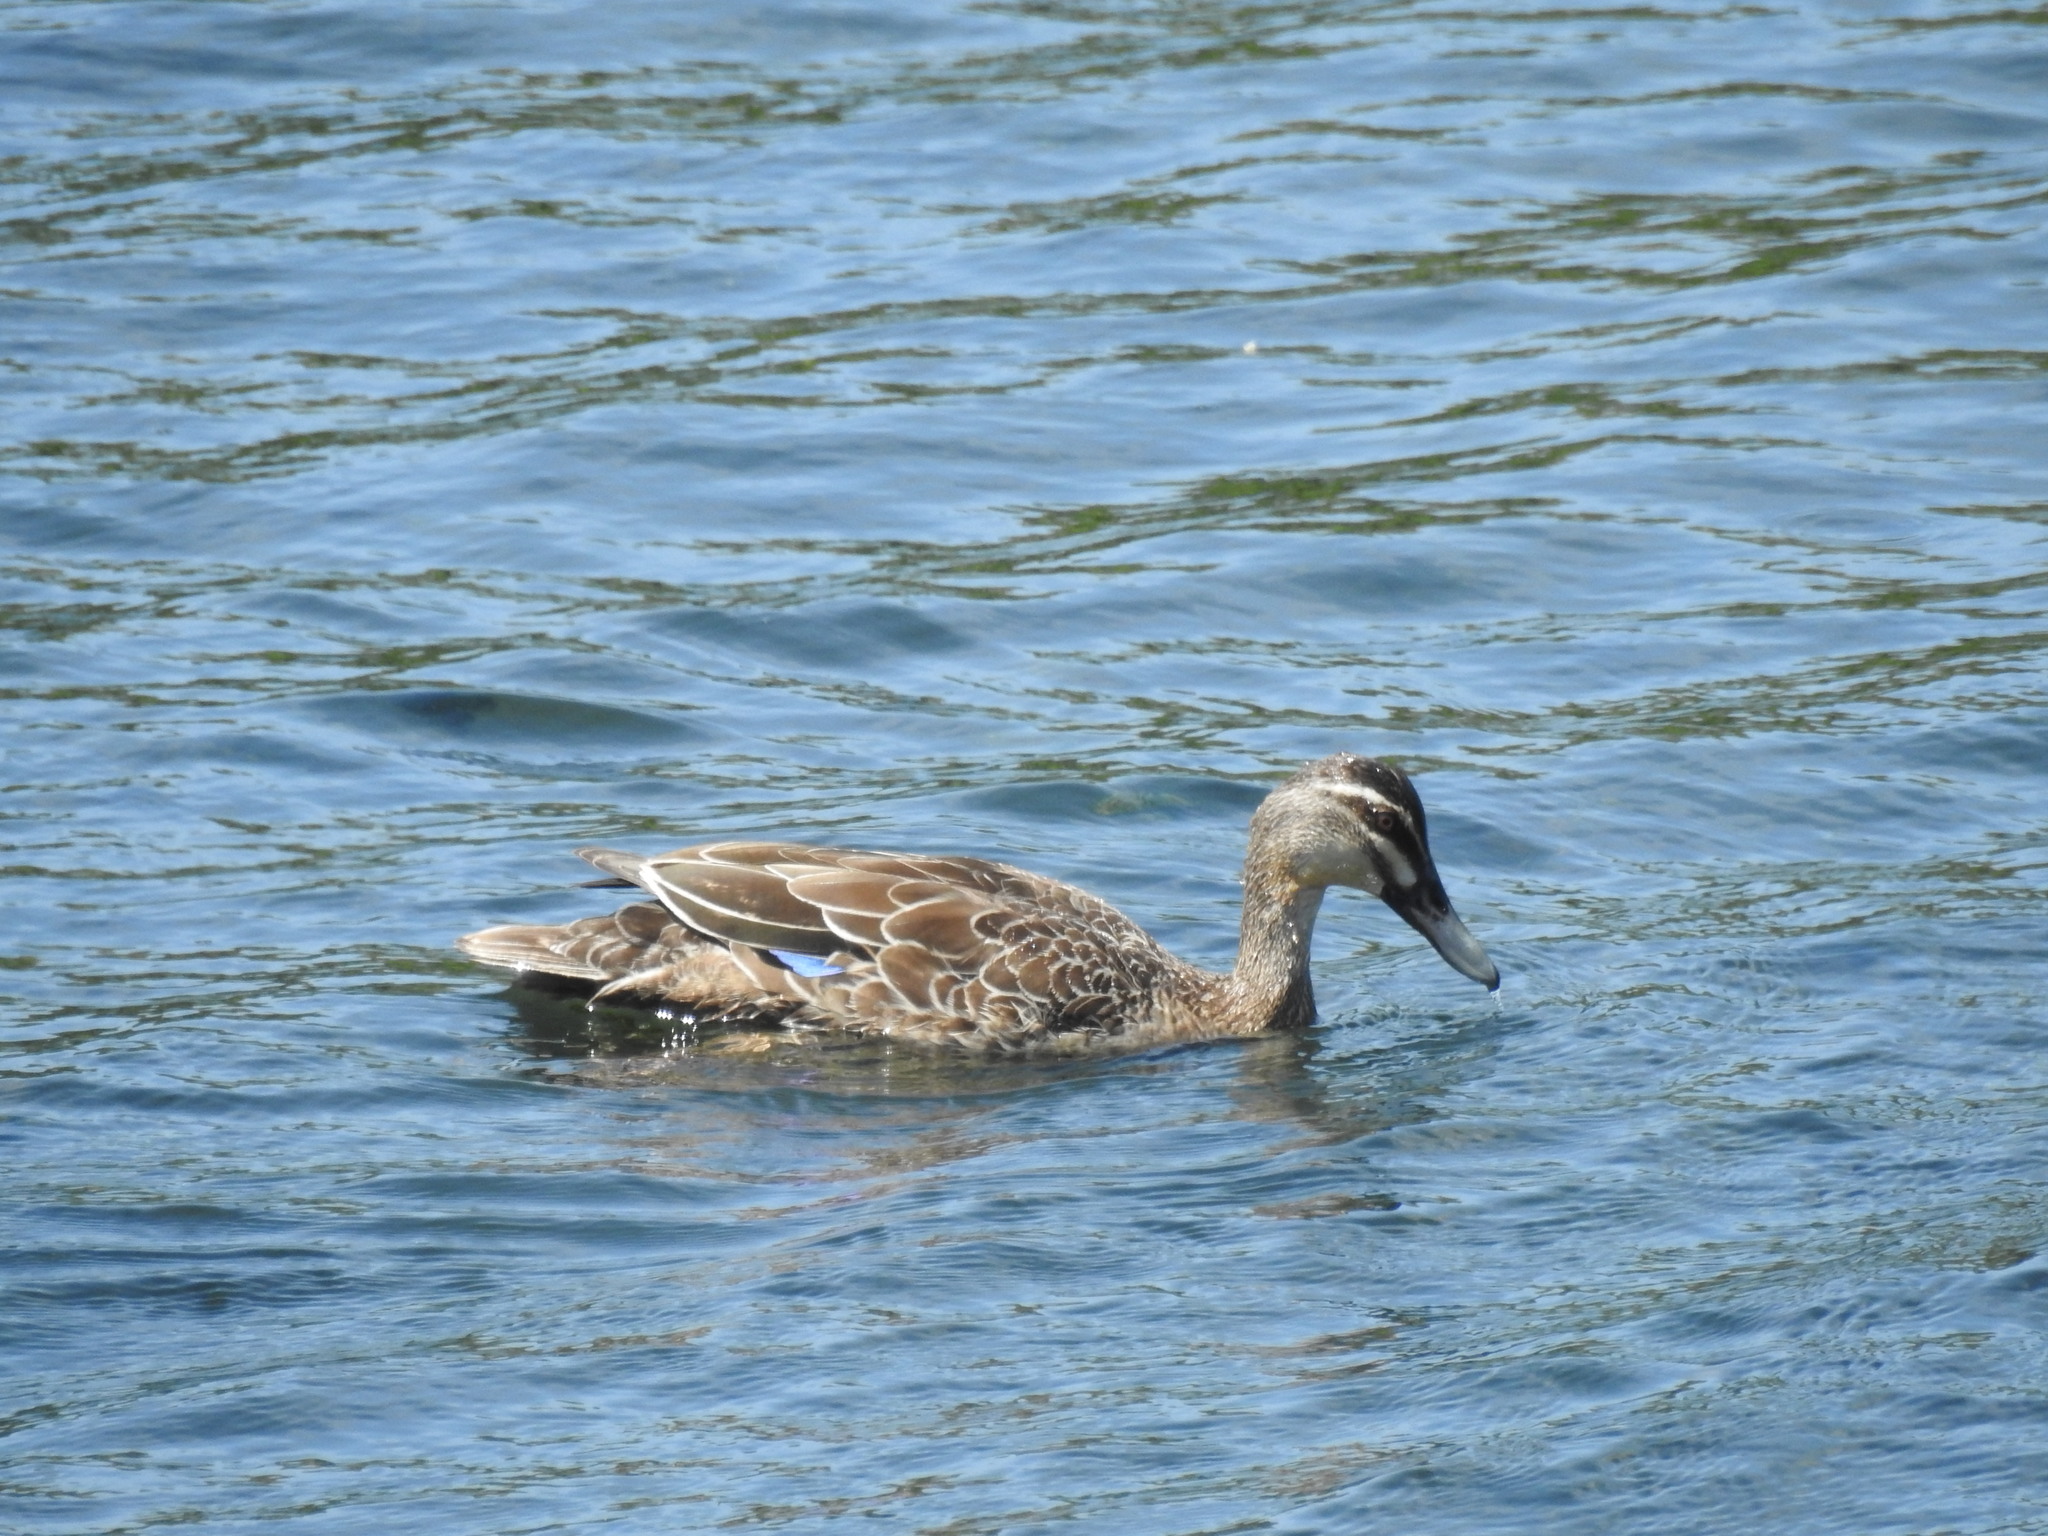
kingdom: Animalia
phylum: Chordata
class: Aves
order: Anseriformes
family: Anatidae
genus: Anas
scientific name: Anas
